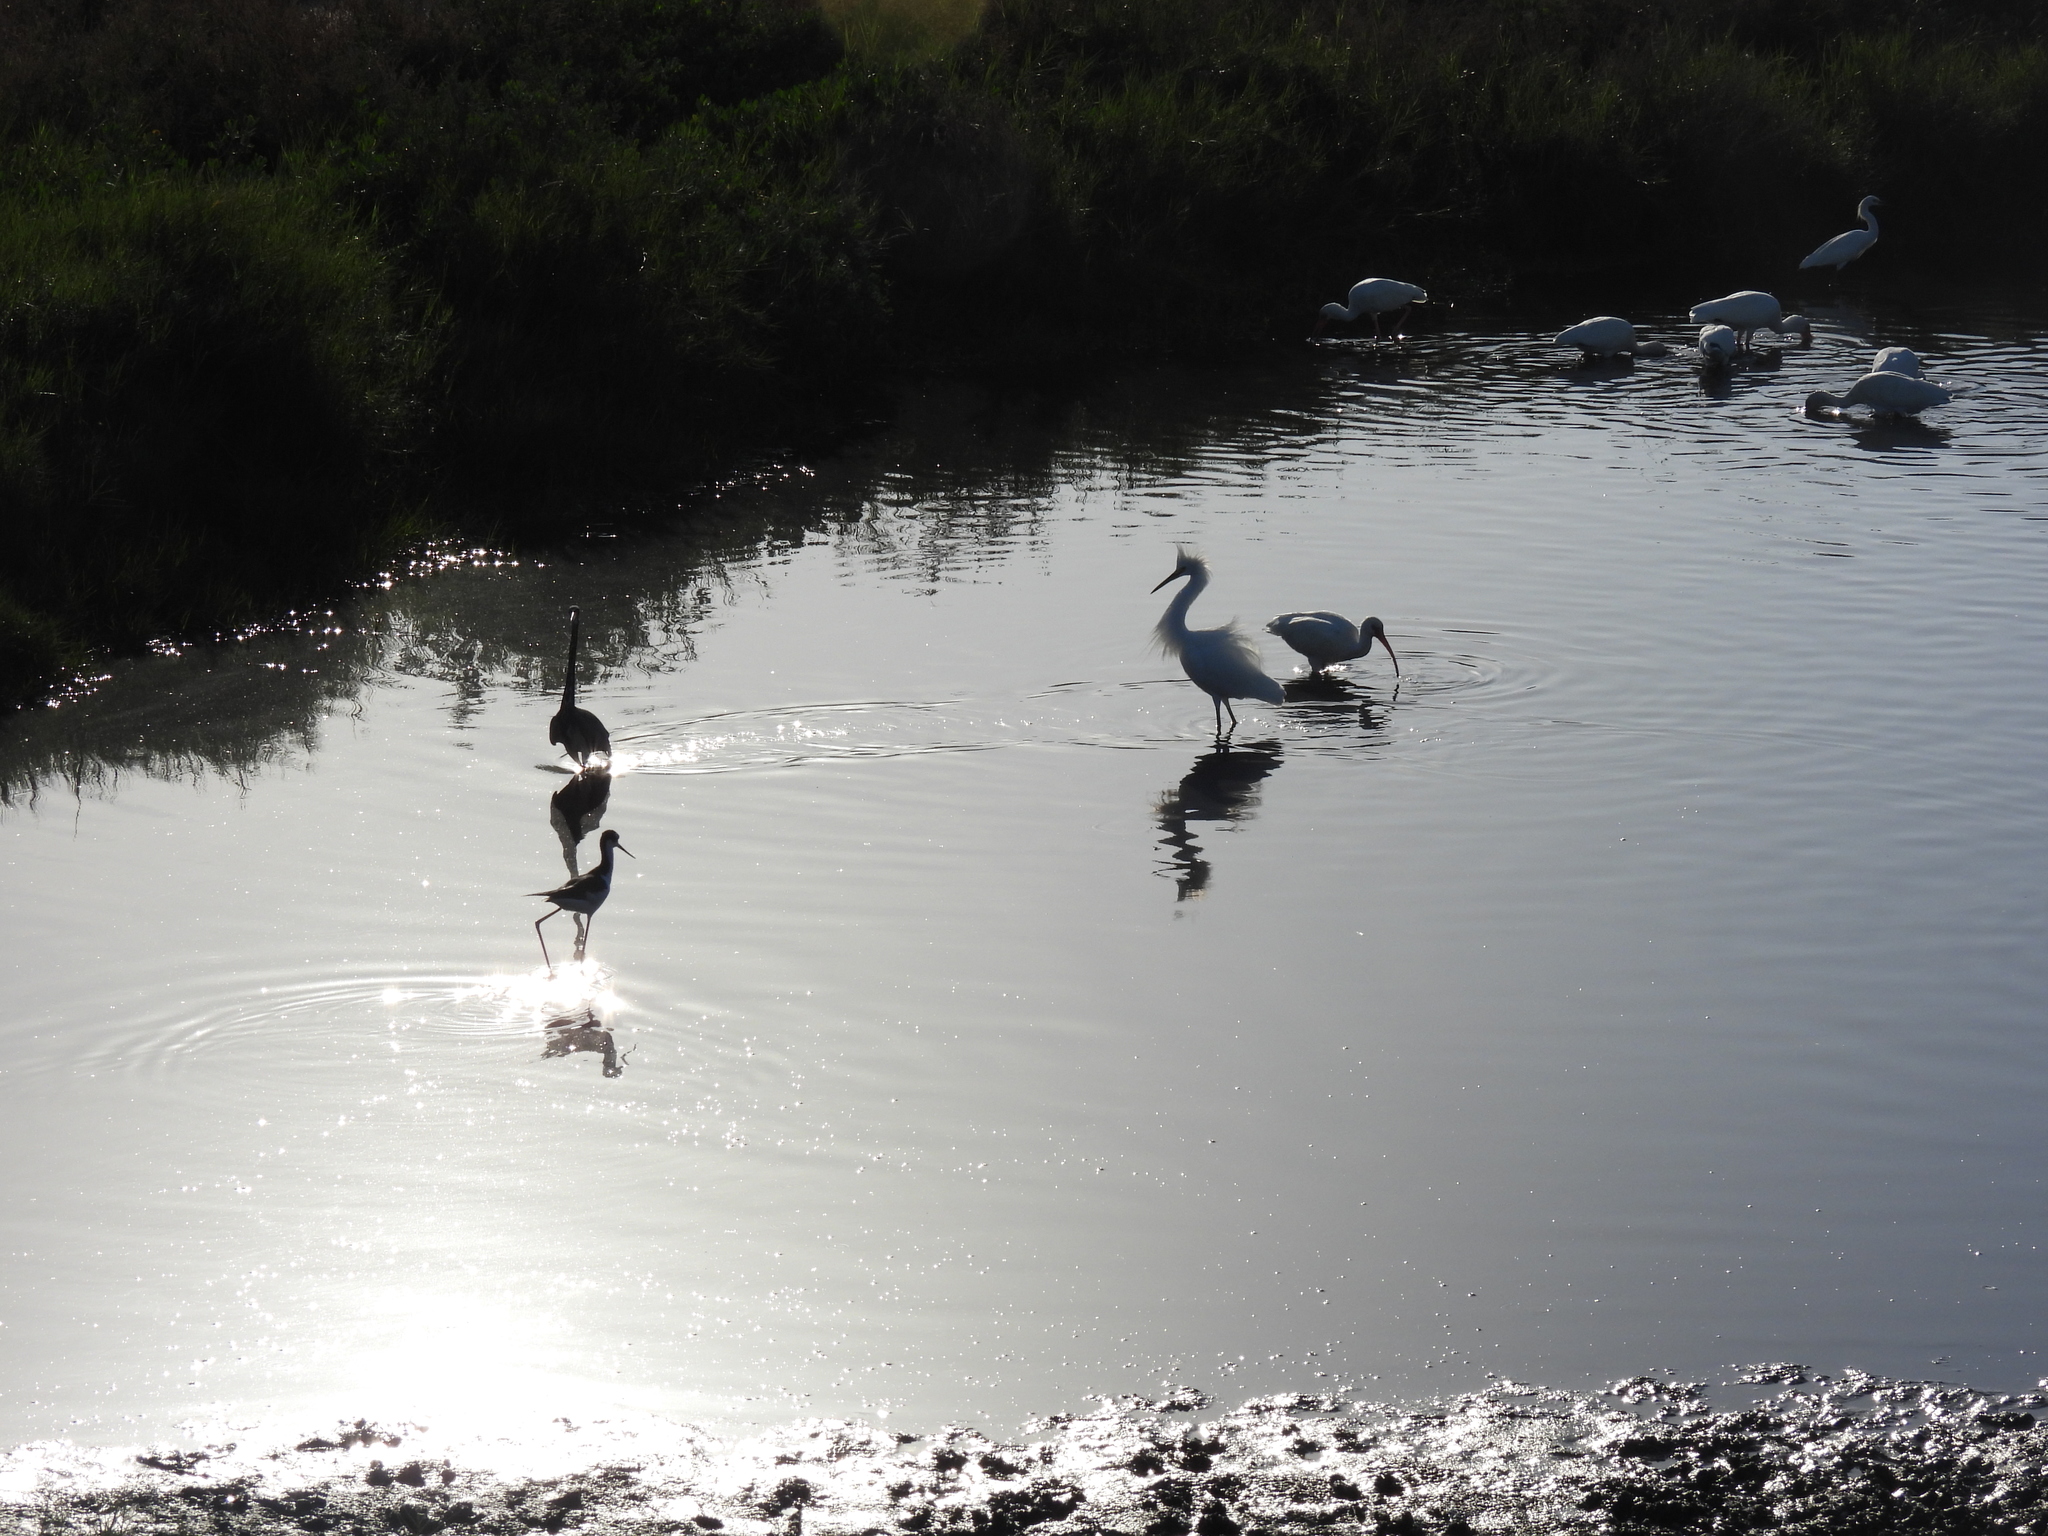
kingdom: Animalia
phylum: Chordata
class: Aves
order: Pelecaniformes
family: Ardeidae
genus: Egretta
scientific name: Egretta thula
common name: Snowy egret
